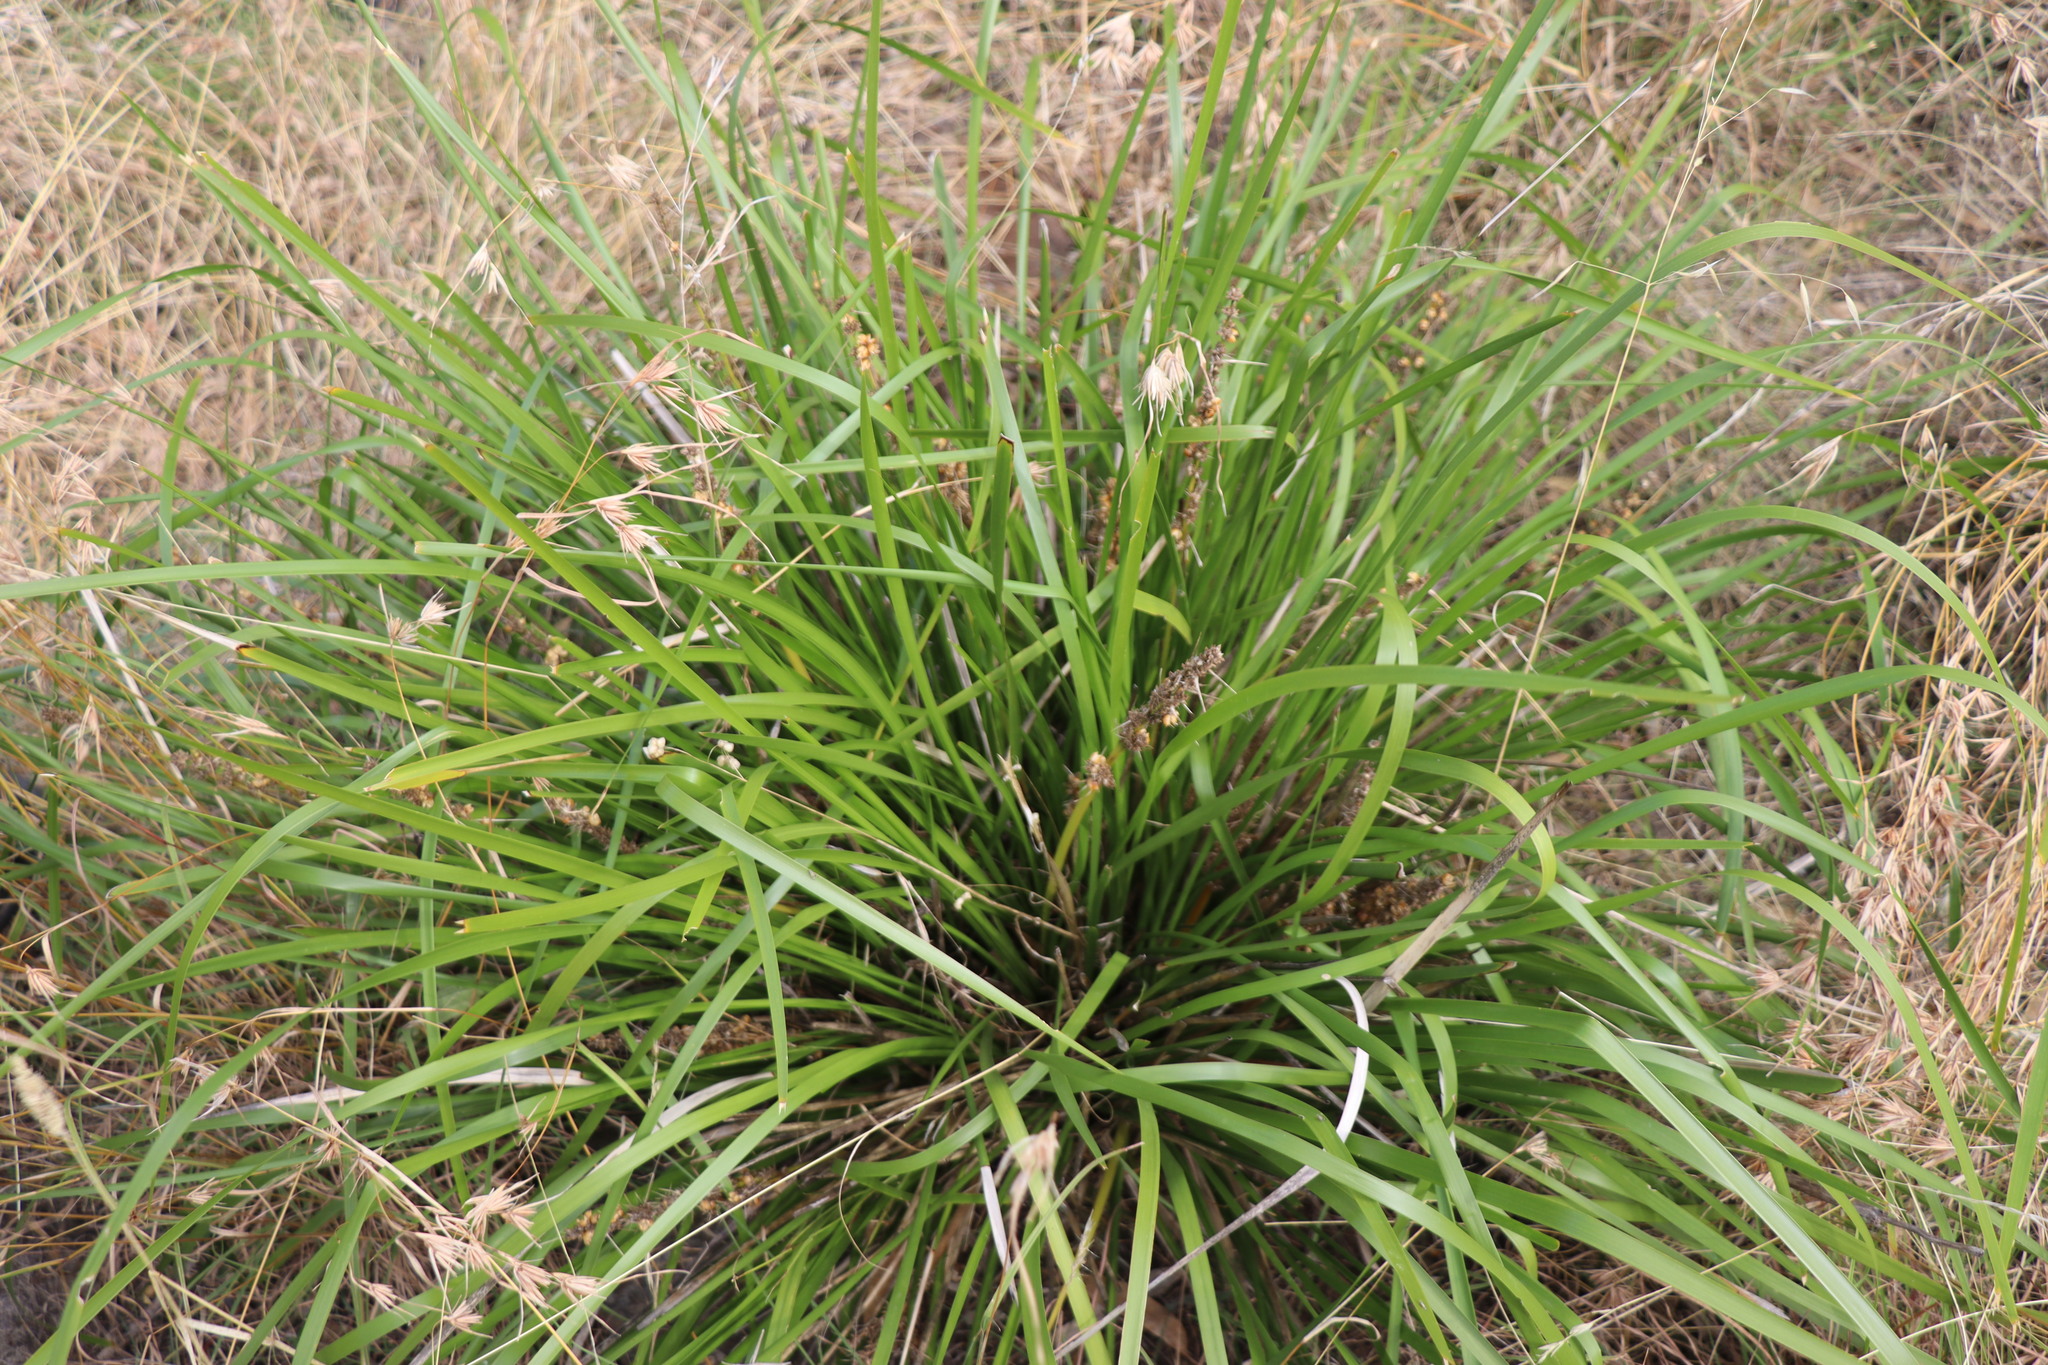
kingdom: Plantae
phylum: Tracheophyta
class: Liliopsida
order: Asparagales
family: Asparagaceae
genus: Lomandra
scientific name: Lomandra longifolia
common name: Longleaf mat-rush
